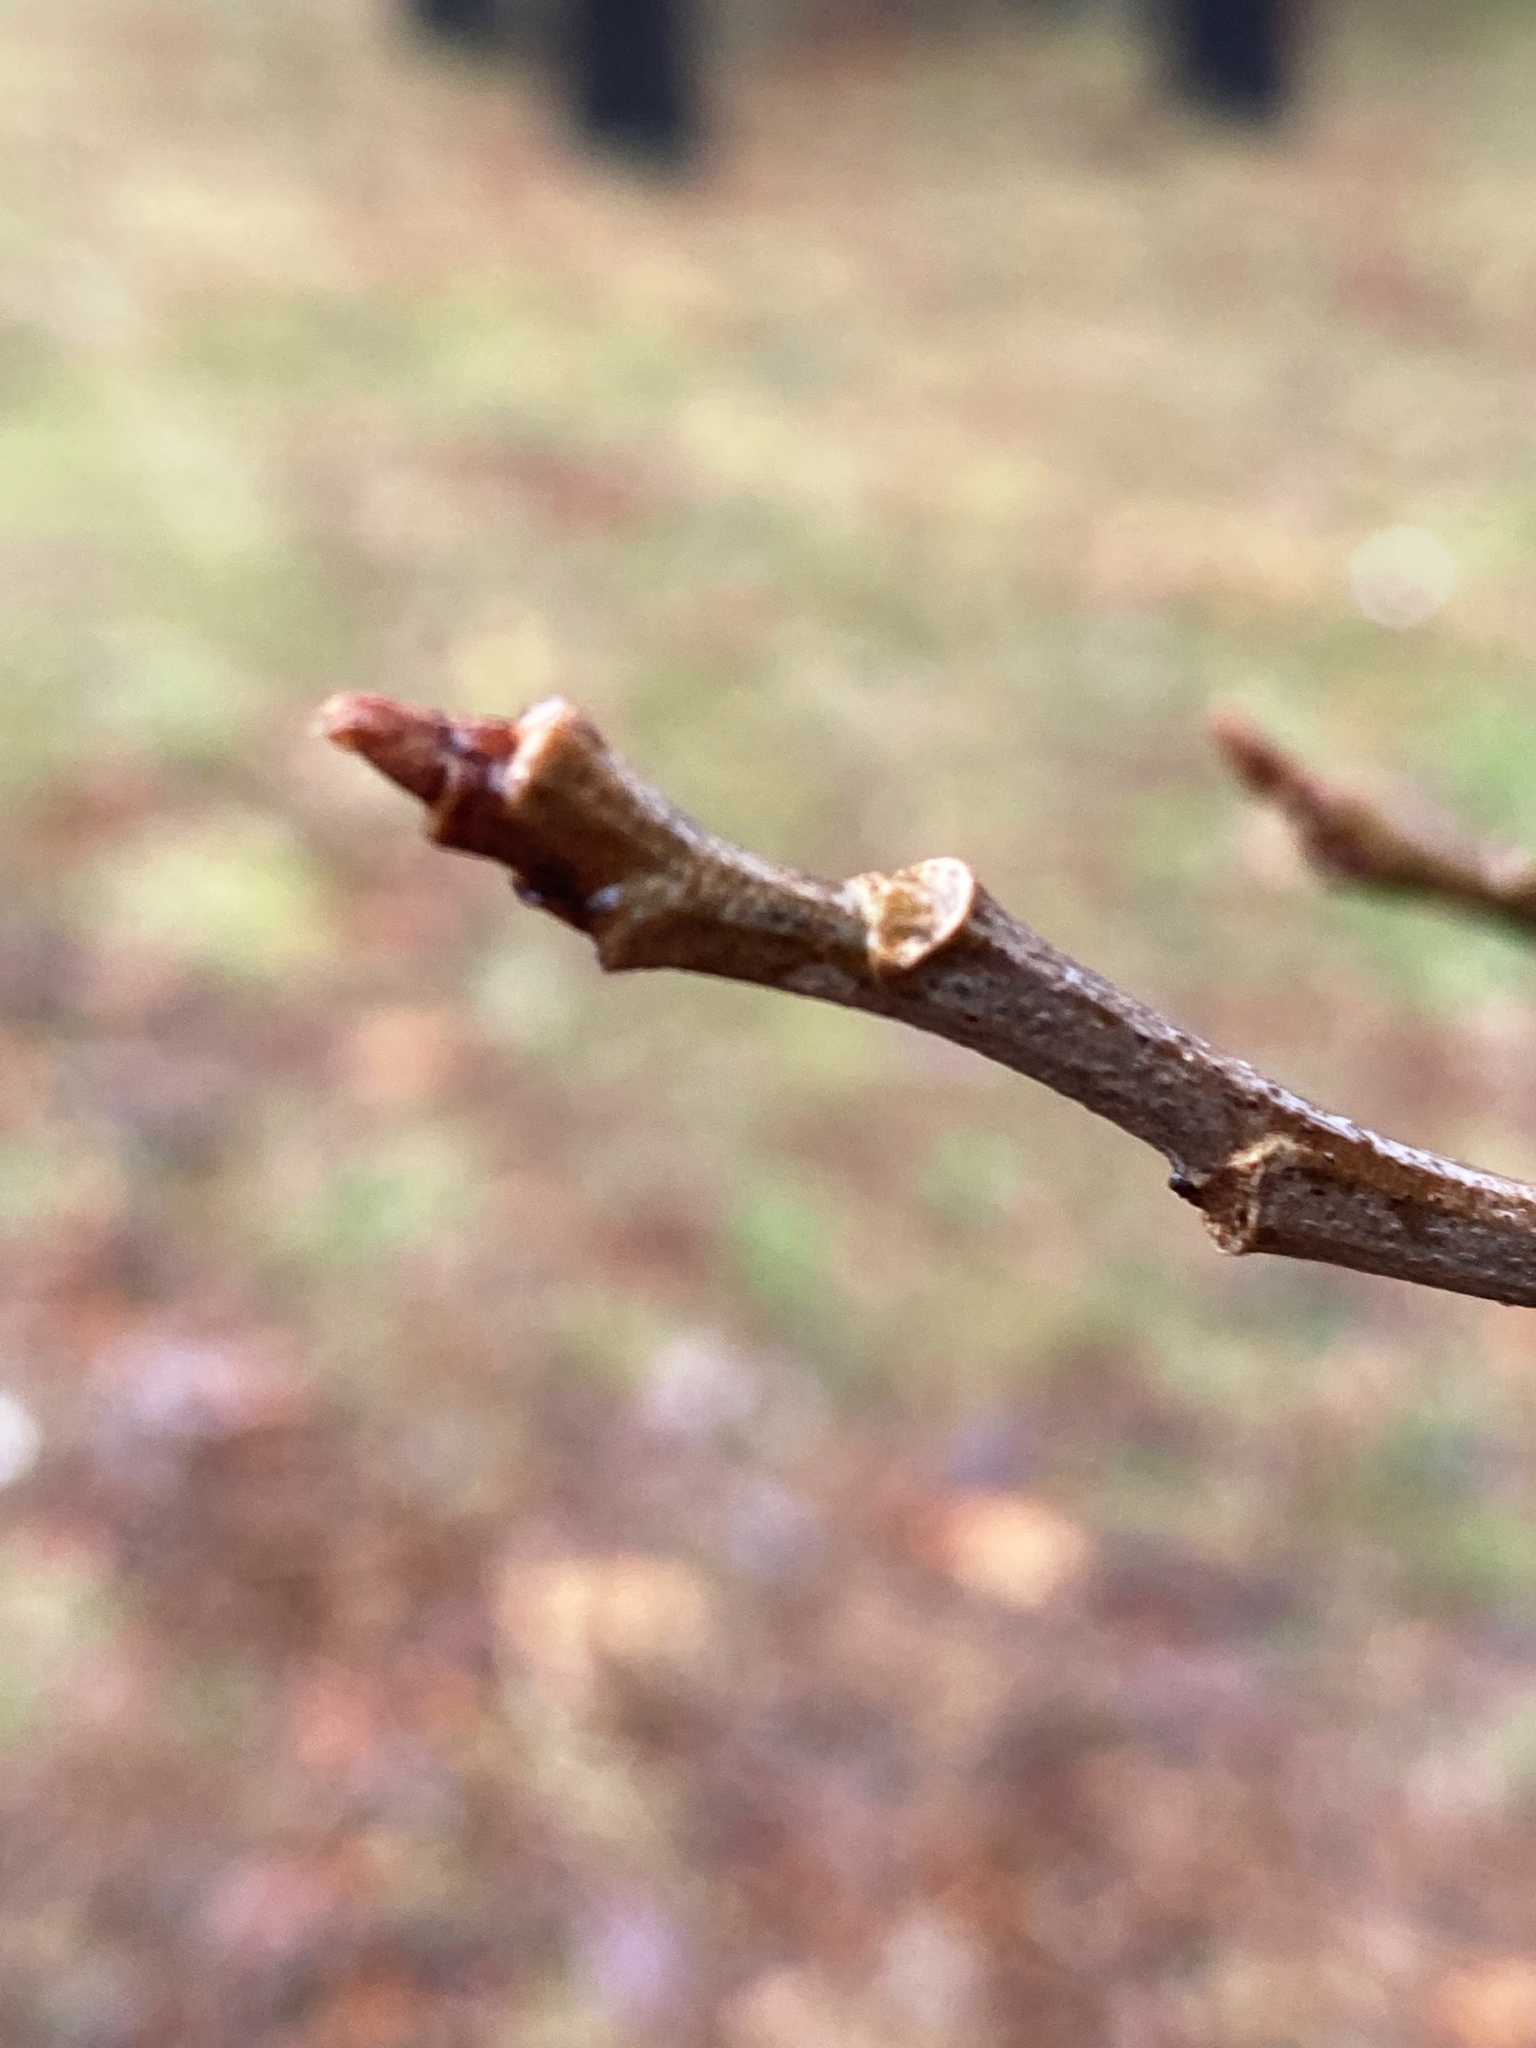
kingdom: Plantae
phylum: Tracheophyta
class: Magnoliopsida
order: Sapindales
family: Anacardiaceae
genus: Toxicodendron
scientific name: Toxicodendron radicans
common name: Poison ivy
